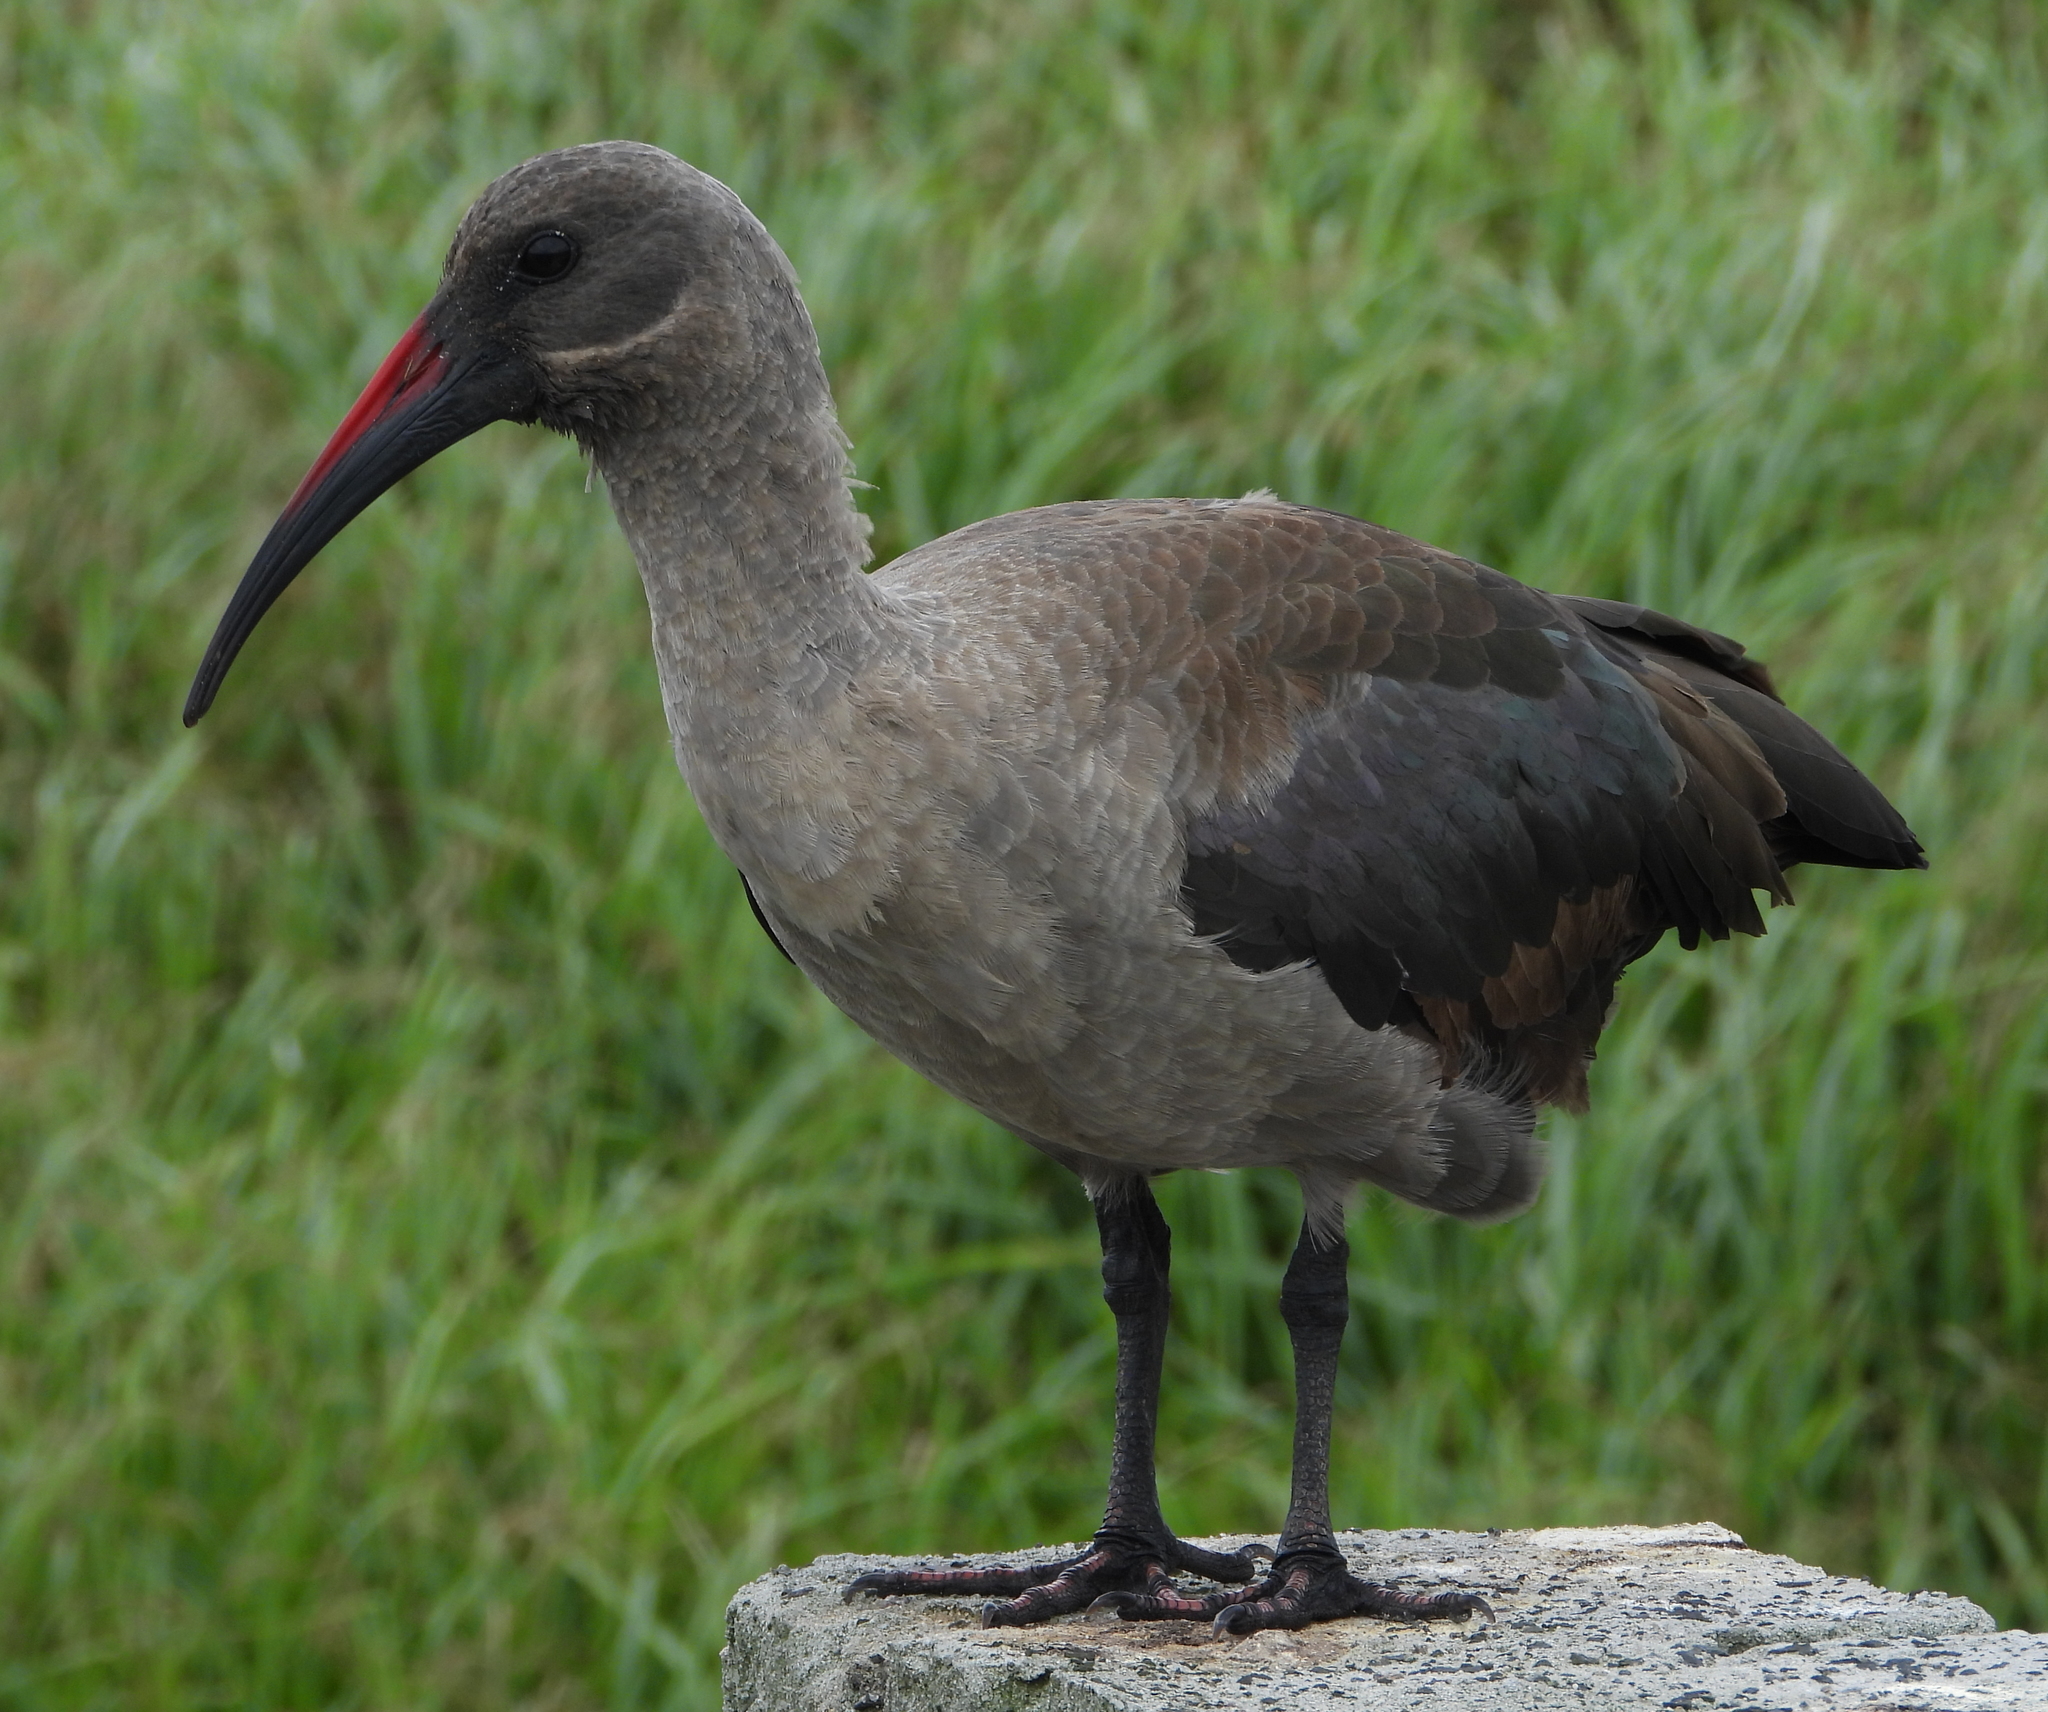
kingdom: Animalia
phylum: Chordata
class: Aves
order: Pelecaniformes
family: Threskiornithidae
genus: Bostrychia
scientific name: Bostrychia hagedash
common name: Hadada ibis
